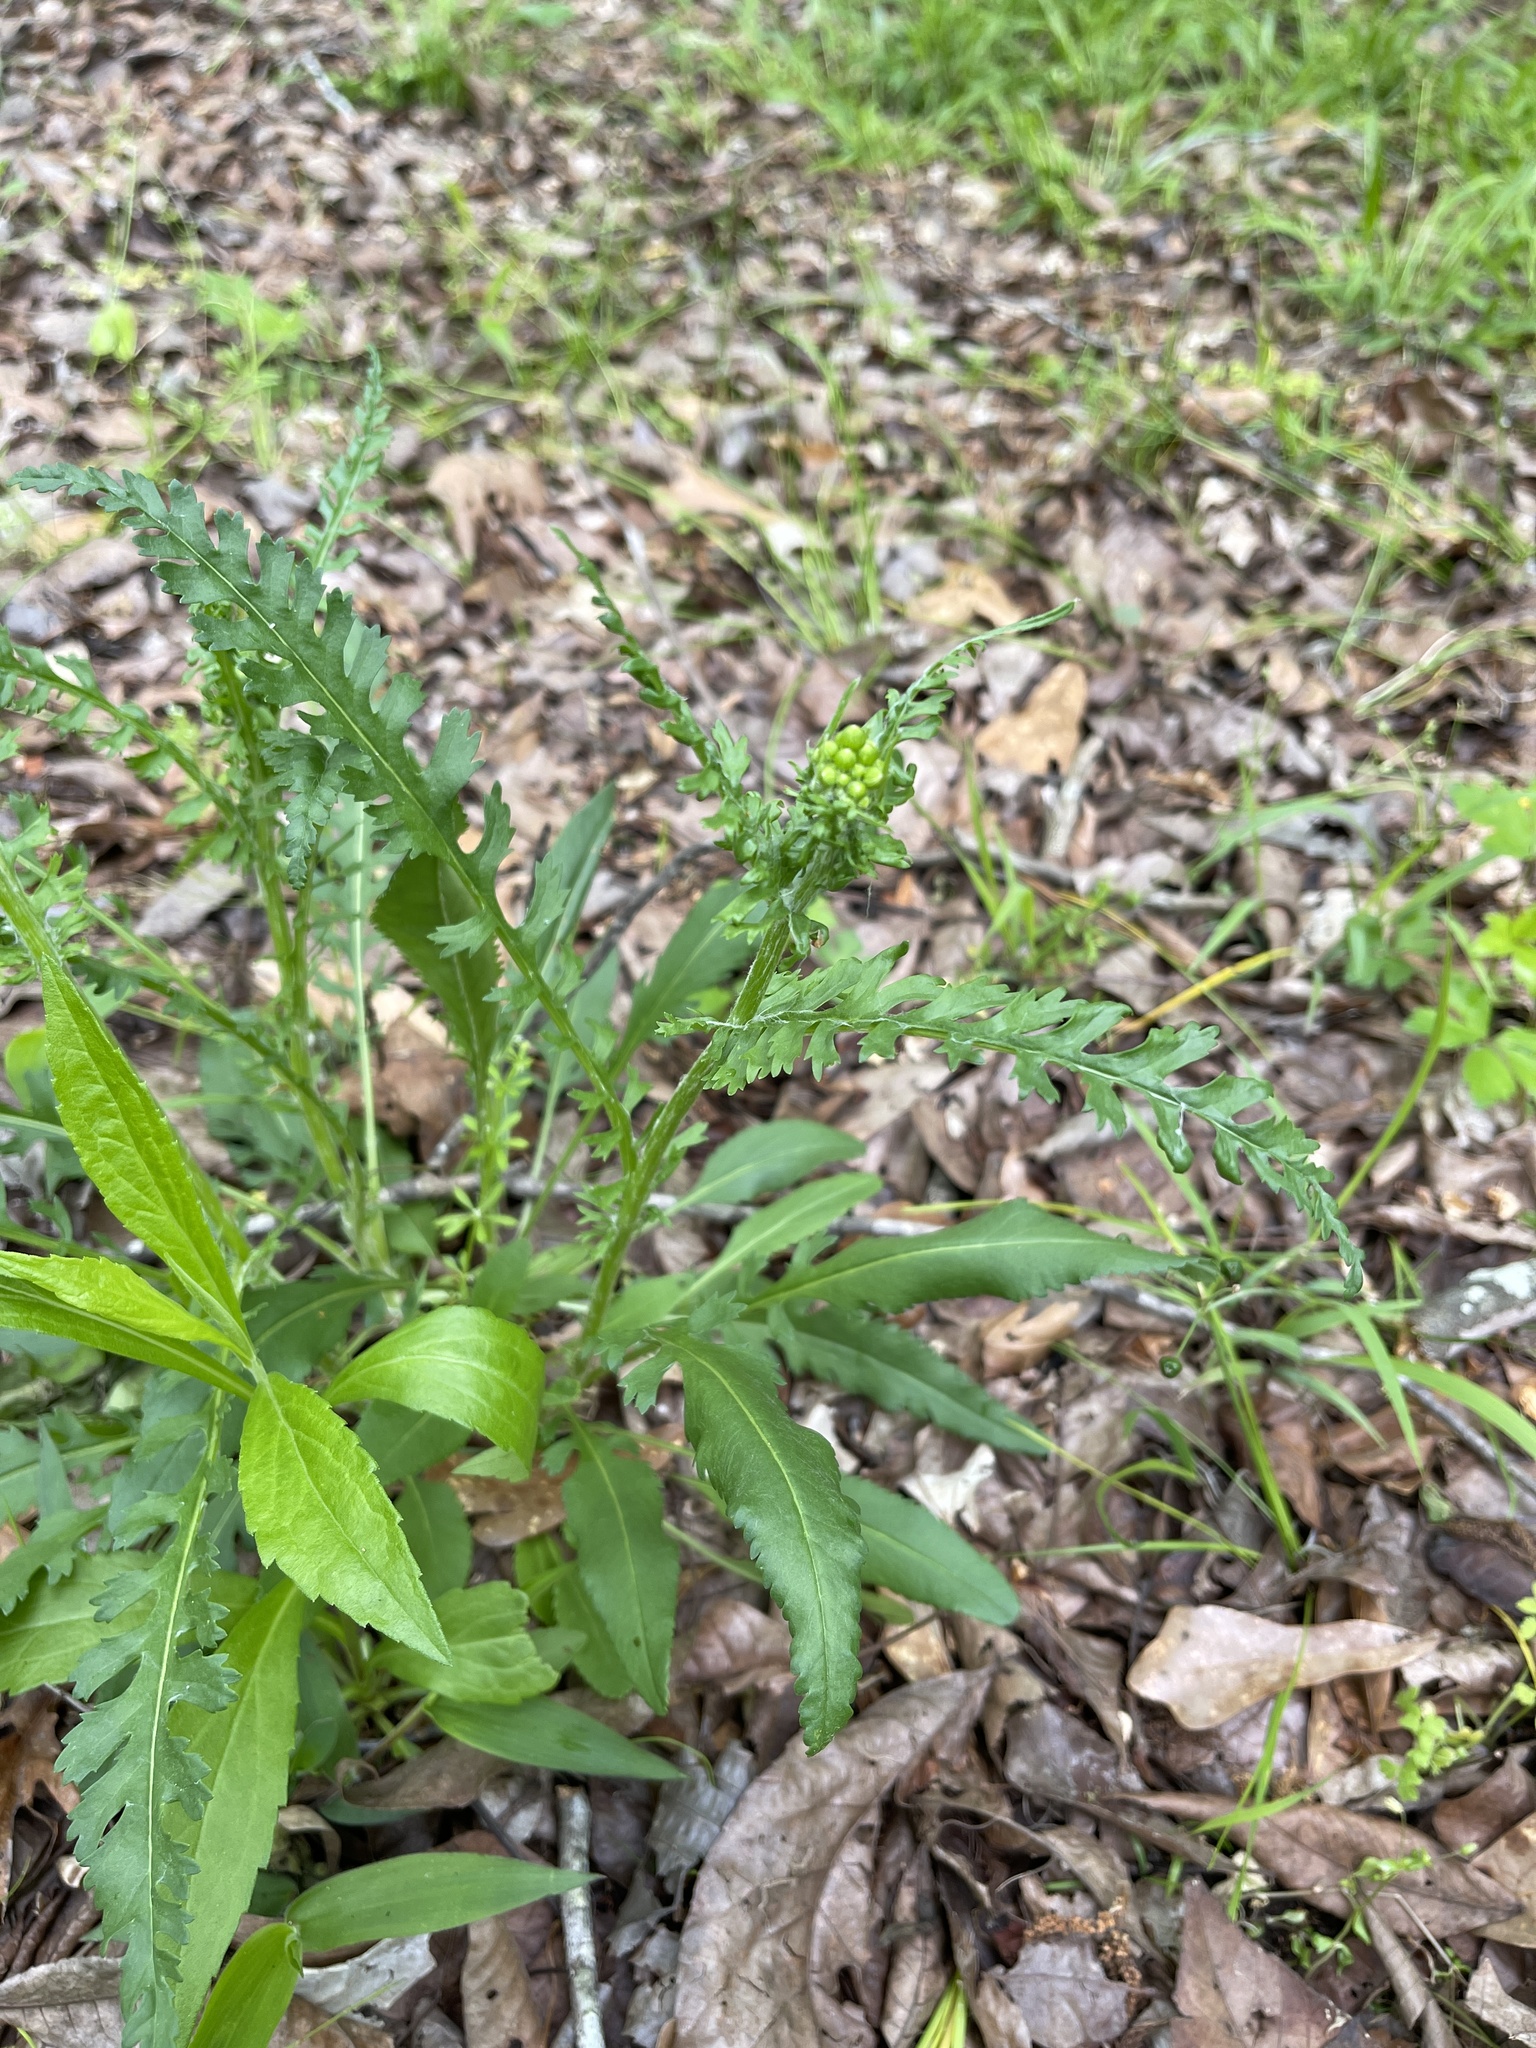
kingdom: Plantae
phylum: Tracheophyta
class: Magnoliopsida
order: Asterales
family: Asteraceae
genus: Packera
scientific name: Packera anonyma
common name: Small ragwort
